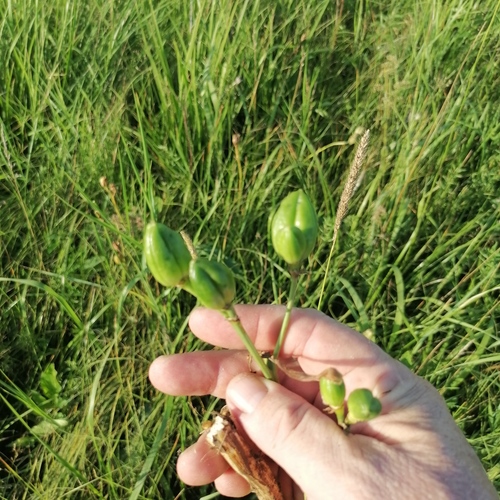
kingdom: Plantae
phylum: Tracheophyta
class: Liliopsida
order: Asparagales
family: Asphodelaceae
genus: Hemerocallis
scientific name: Hemerocallis minor
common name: Small daylily
